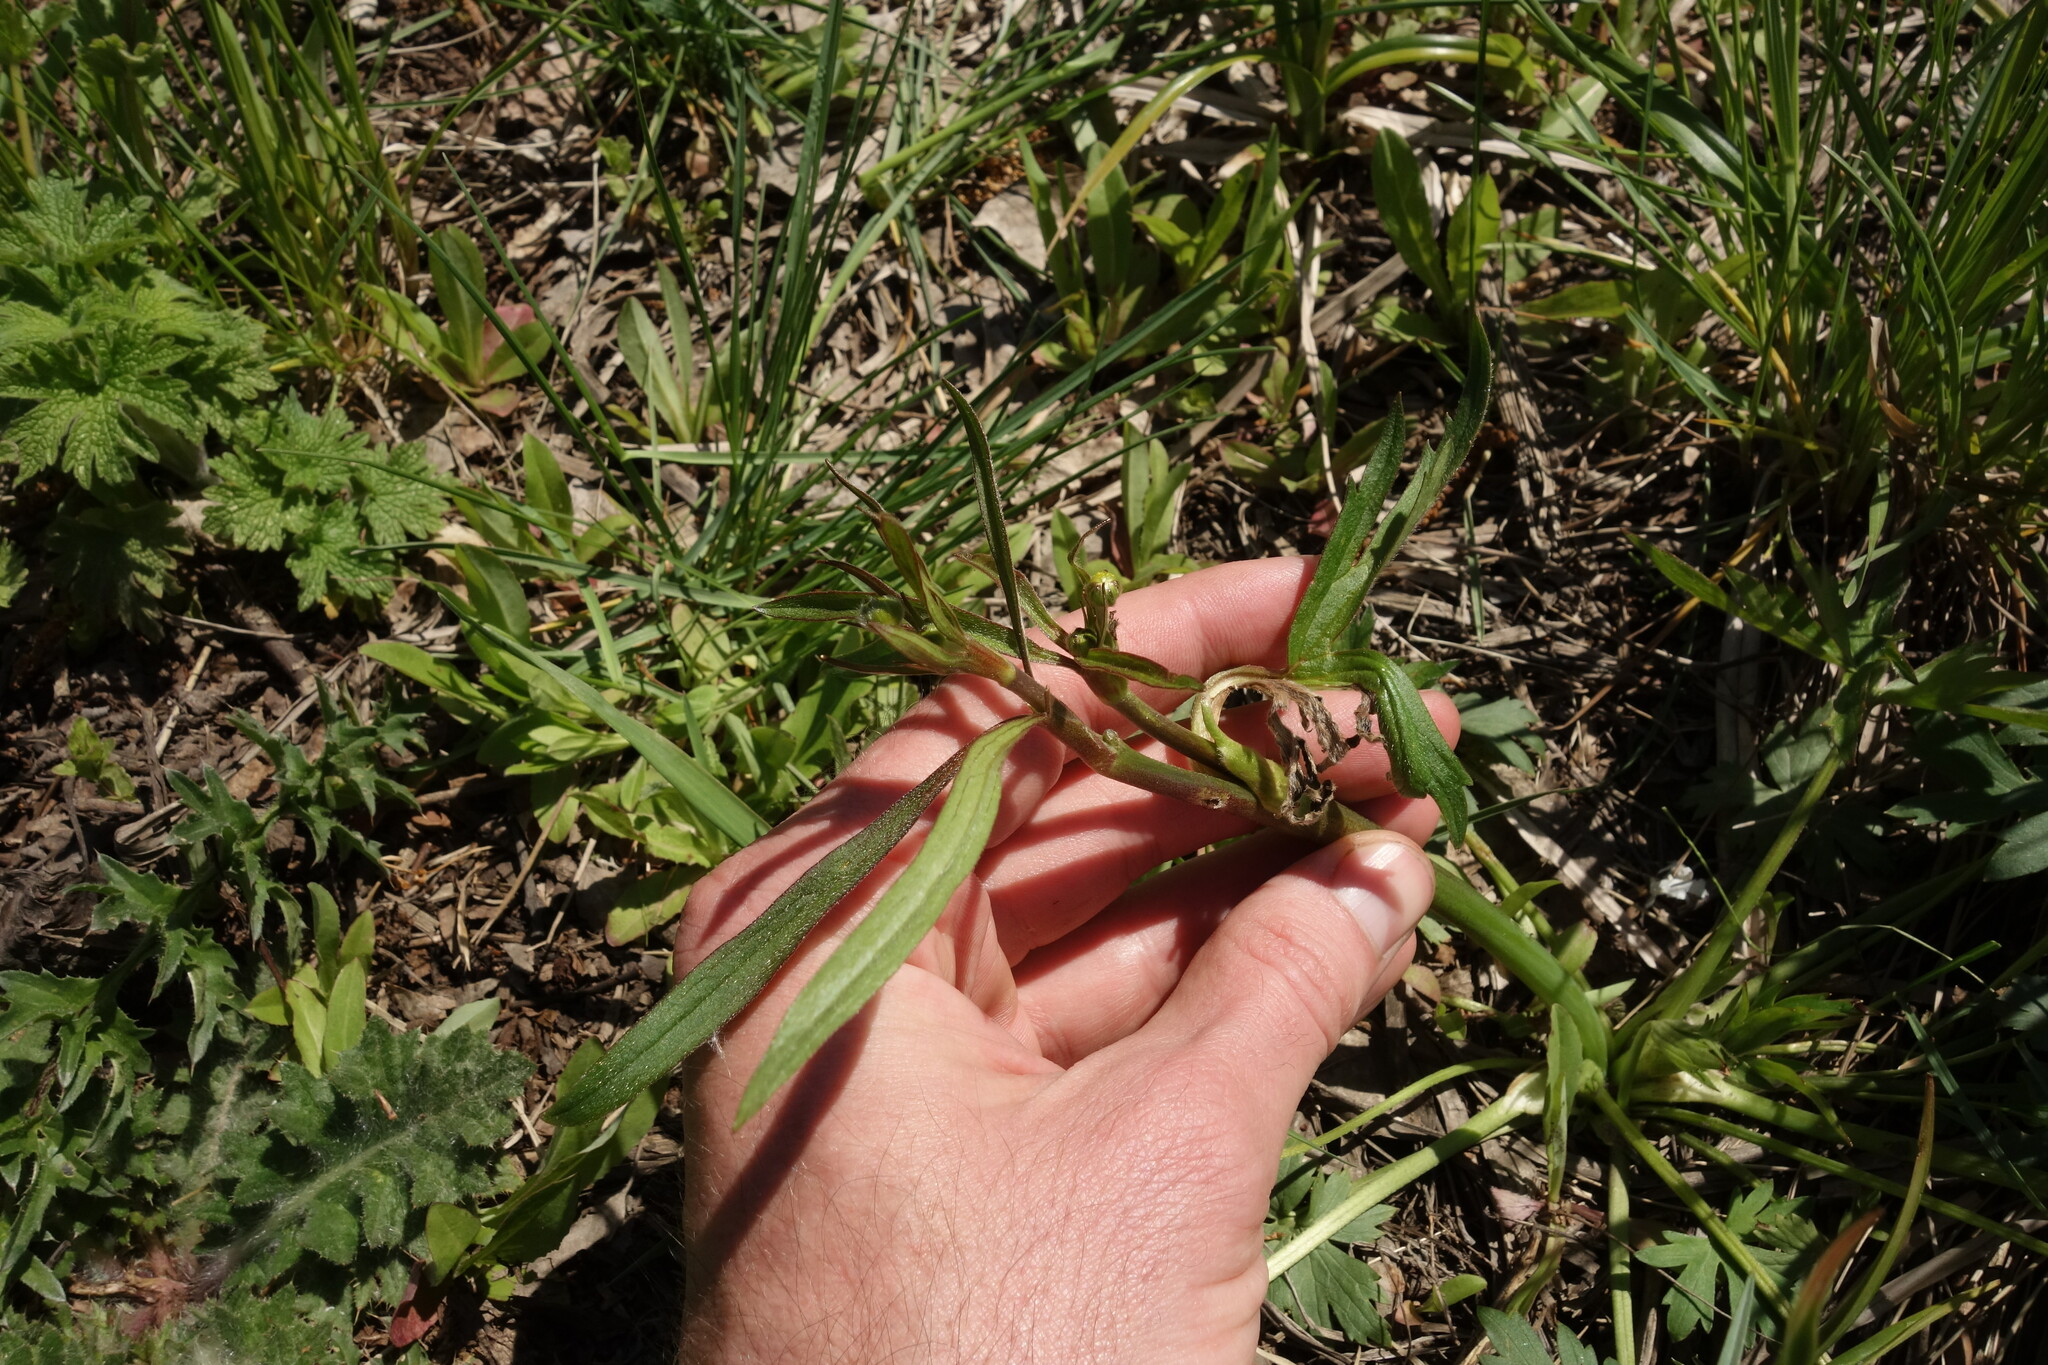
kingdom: Plantae
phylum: Tracheophyta
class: Magnoliopsida
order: Ranunculales
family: Ranunculaceae
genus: Ranunculus
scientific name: Ranunculus acris
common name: Meadow buttercup
